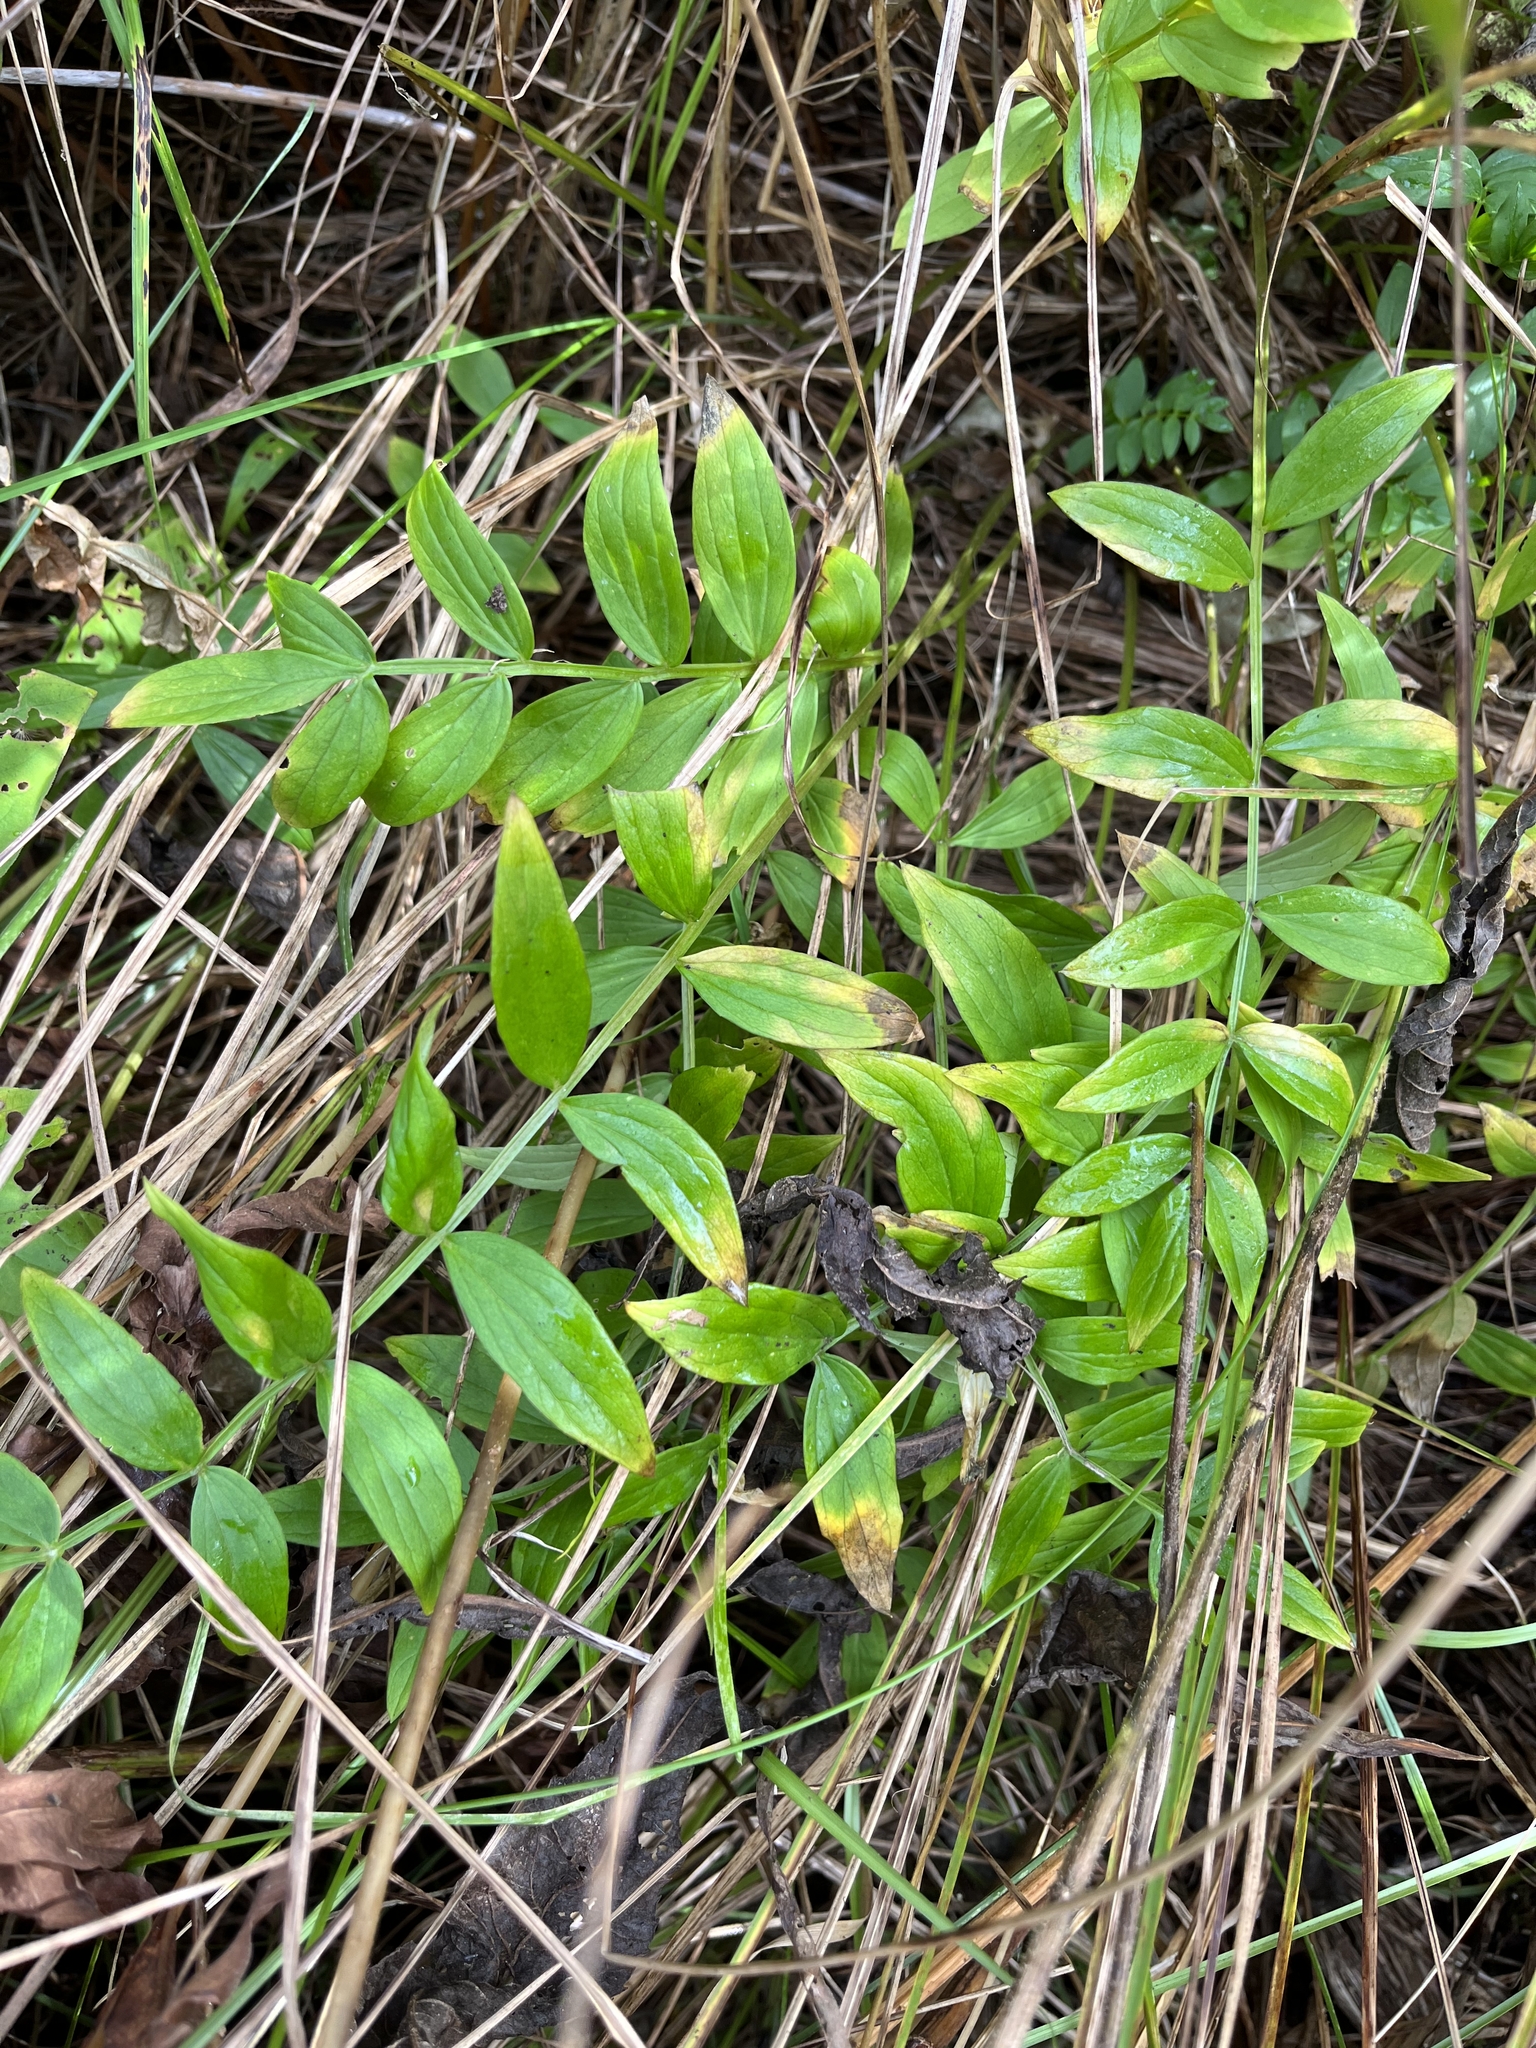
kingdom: Plantae
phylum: Tracheophyta
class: Magnoliopsida
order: Ericales
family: Polemoniaceae
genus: Polemonium
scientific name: Polemonium reptans
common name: Creeping jacob's-ladder
